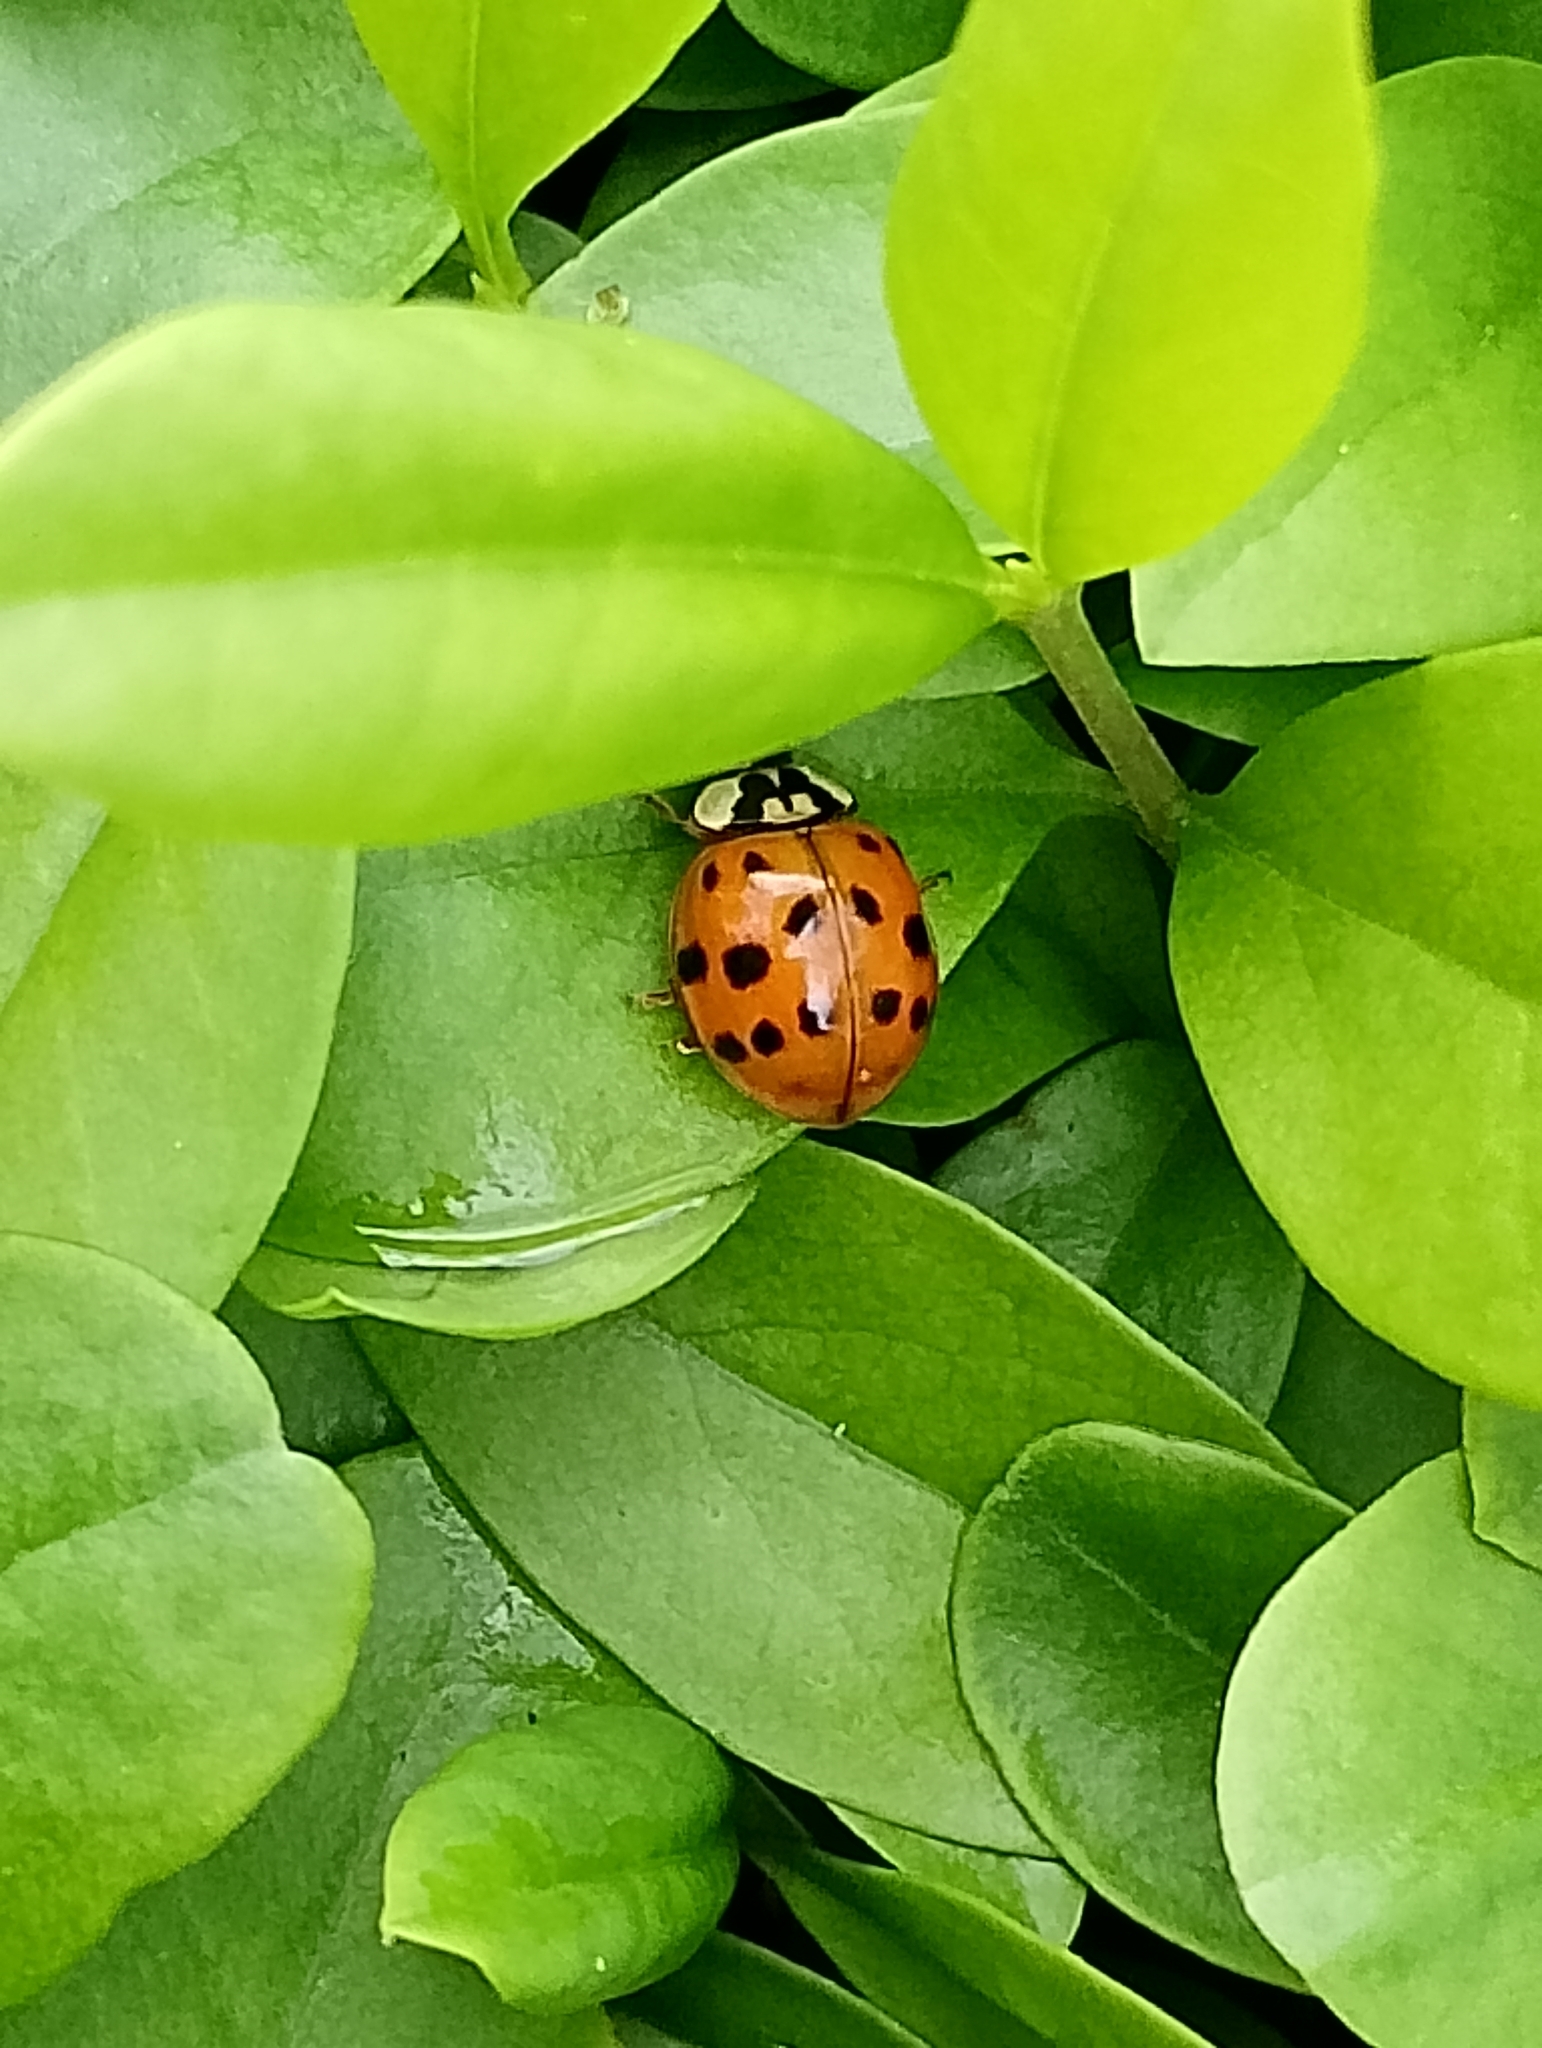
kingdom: Animalia
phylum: Arthropoda
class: Insecta
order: Coleoptera
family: Coccinellidae
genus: Harmonia
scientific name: Harmonia axyridis
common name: Harlequin ladybird
